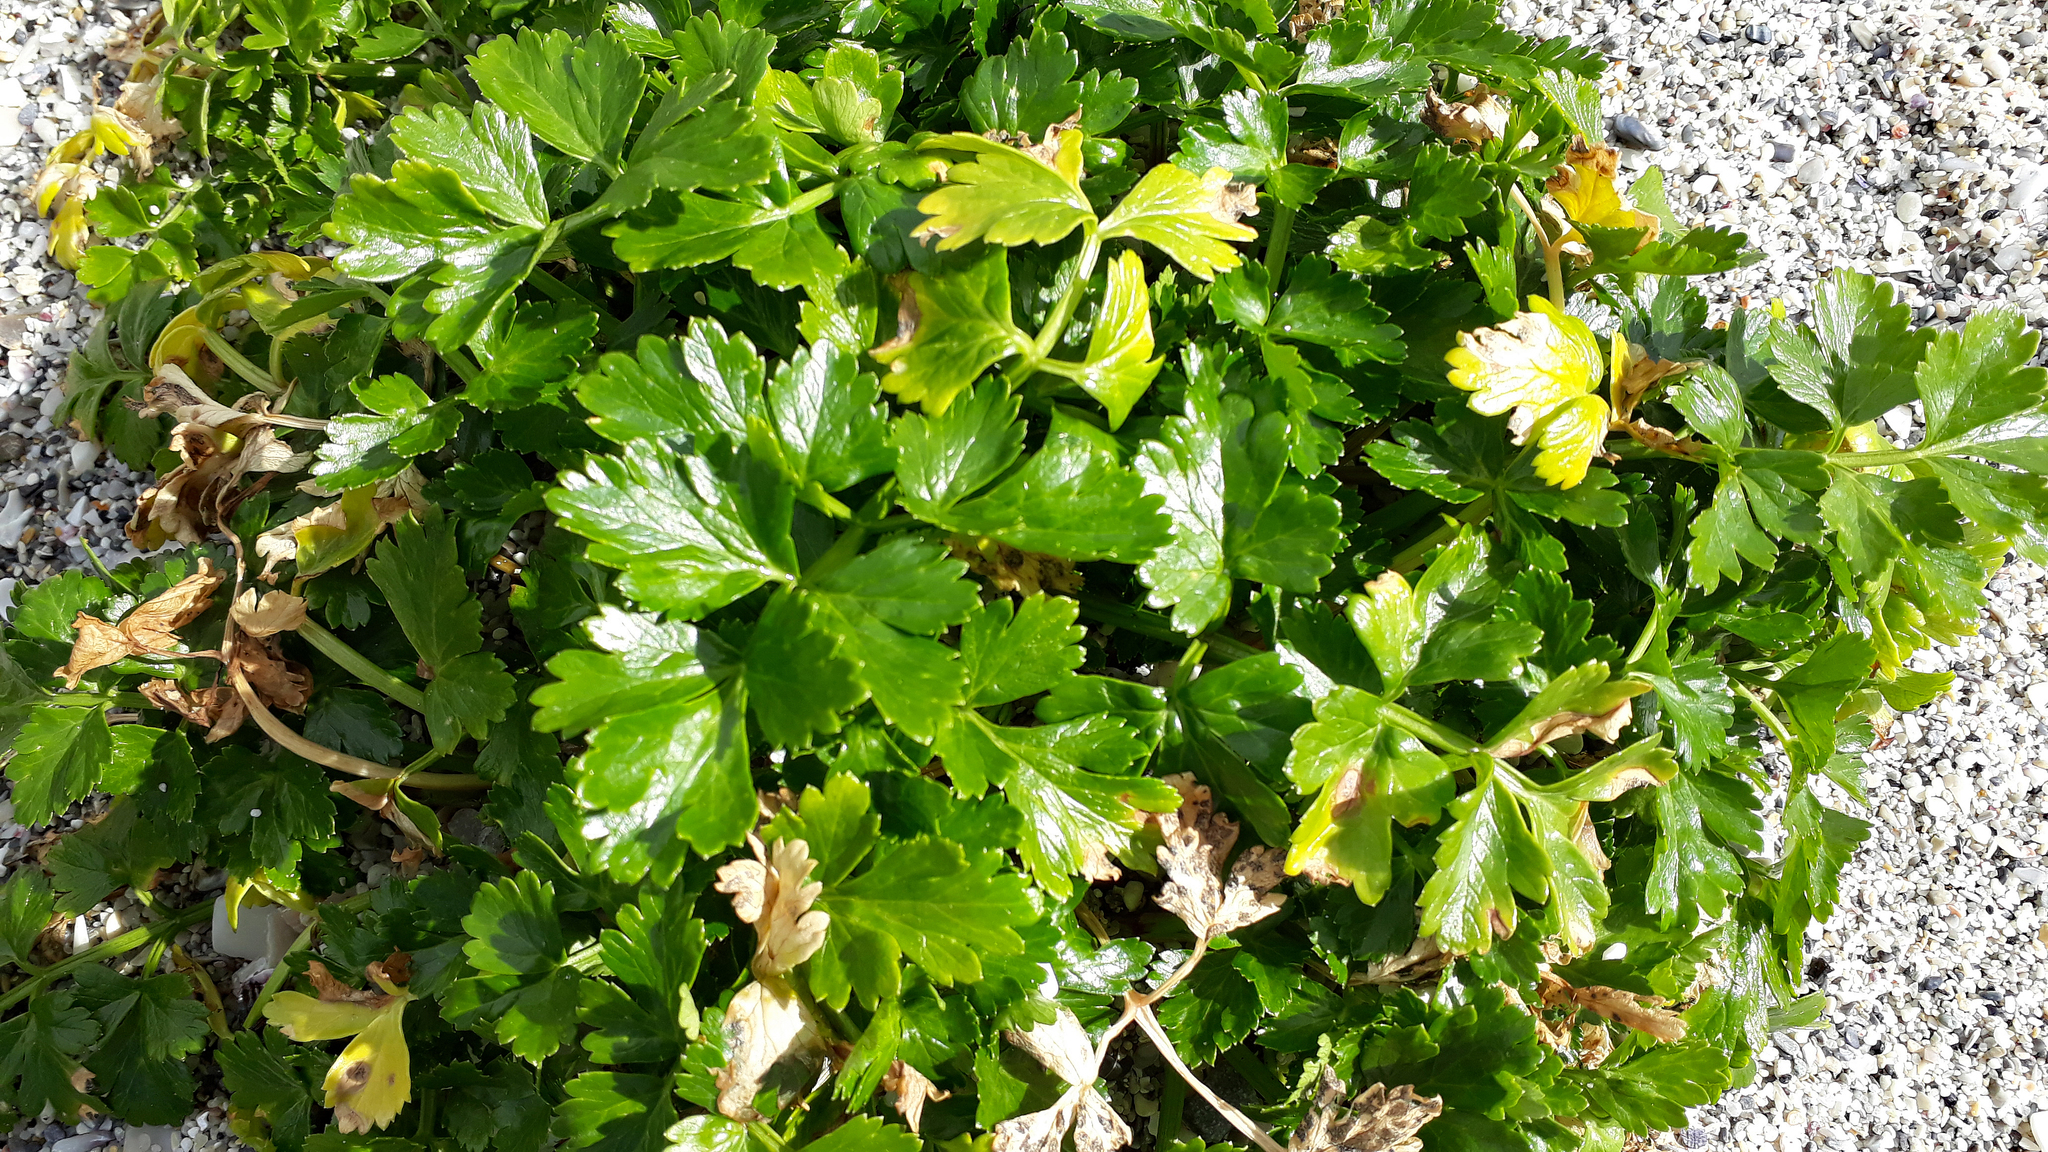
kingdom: Plantae
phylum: Tracheophyta
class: Magnoliopsida
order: Apiales
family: Apiaceae
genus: Apium
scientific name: Apium prostratum
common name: Prostrate marshwort
